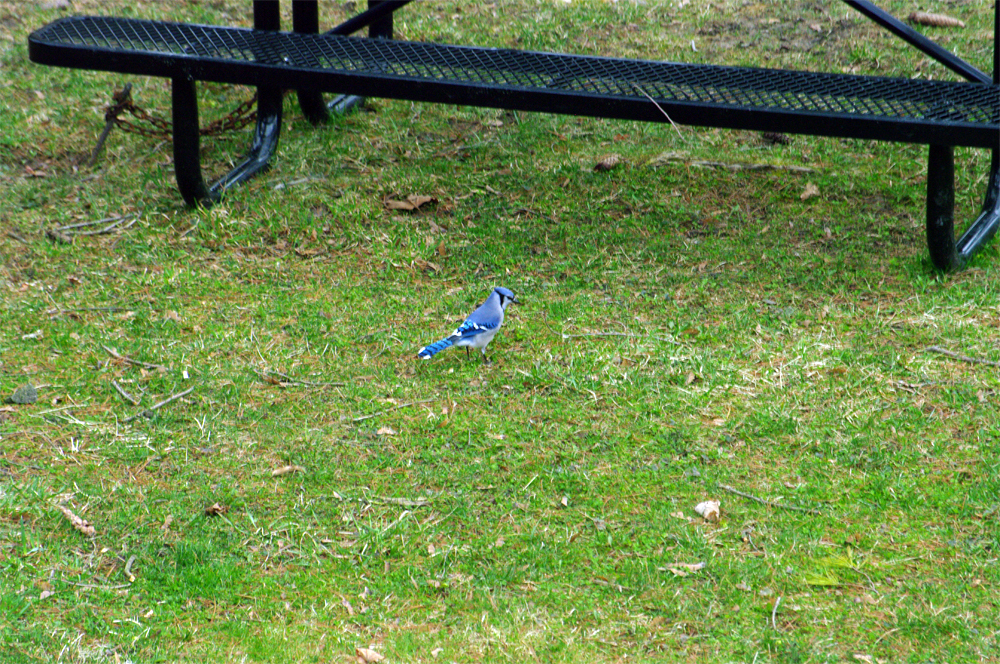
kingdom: Animalia
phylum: Chordata
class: Aves
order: Passeriformes
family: Corvidae
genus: Cyanocitta
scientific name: Cyanocitta cristata
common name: Blue jay
